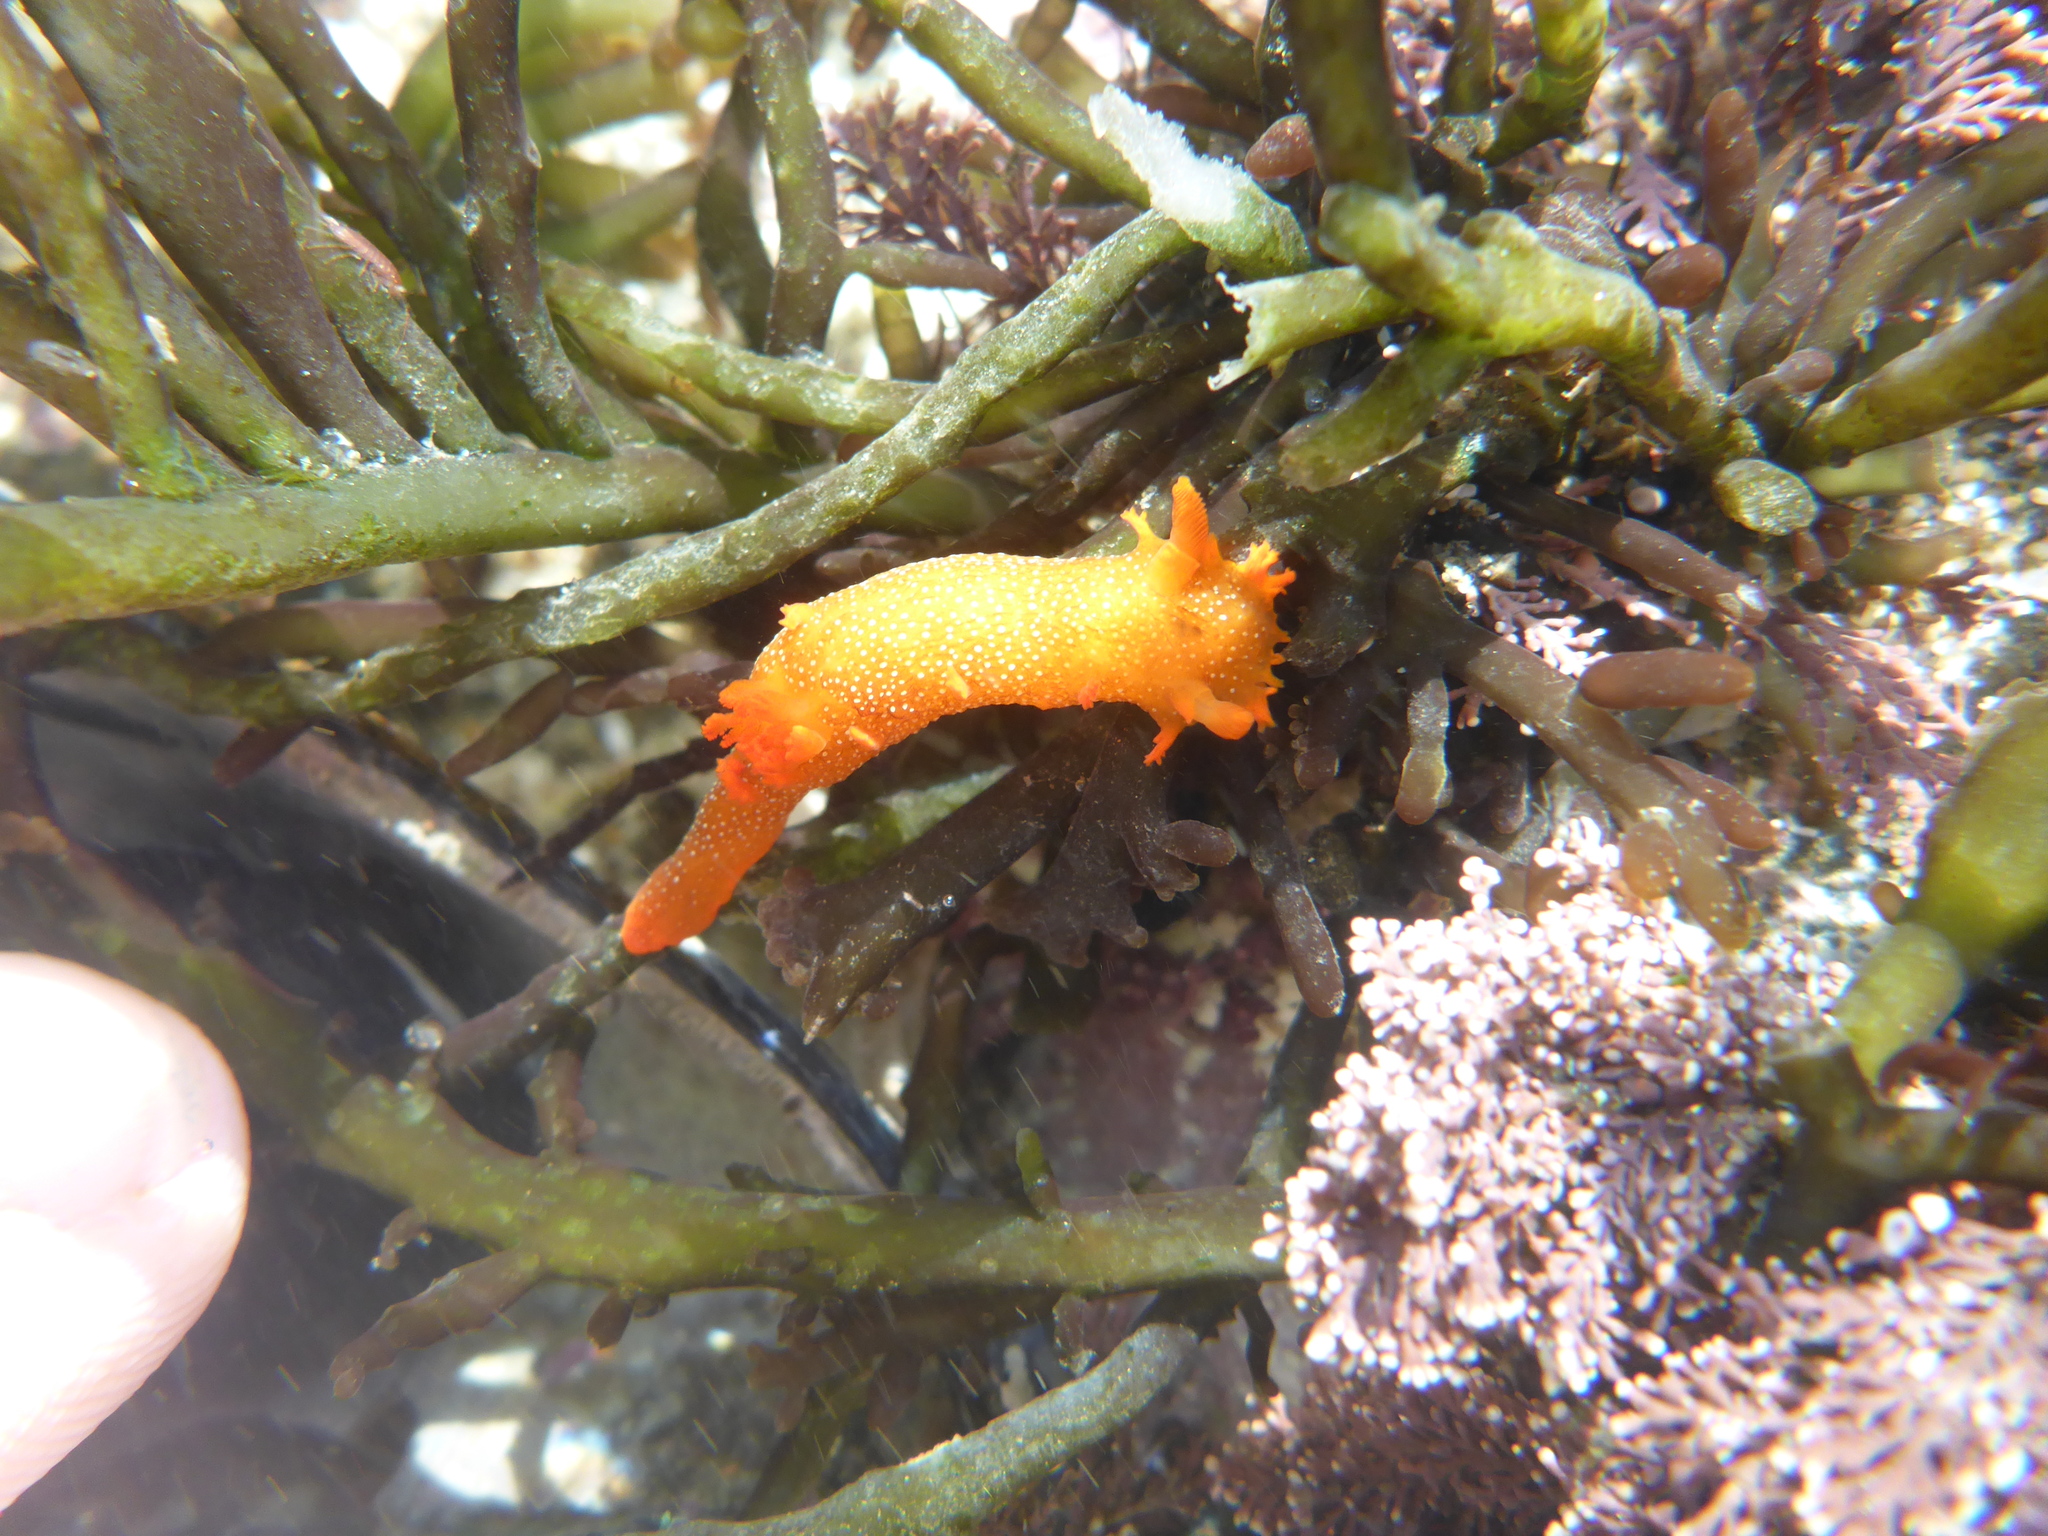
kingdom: Animalia
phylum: Mollusca
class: Gastropoda
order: Nudibranchia
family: Polyceridae
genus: Triopha
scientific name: Triopha maculata
